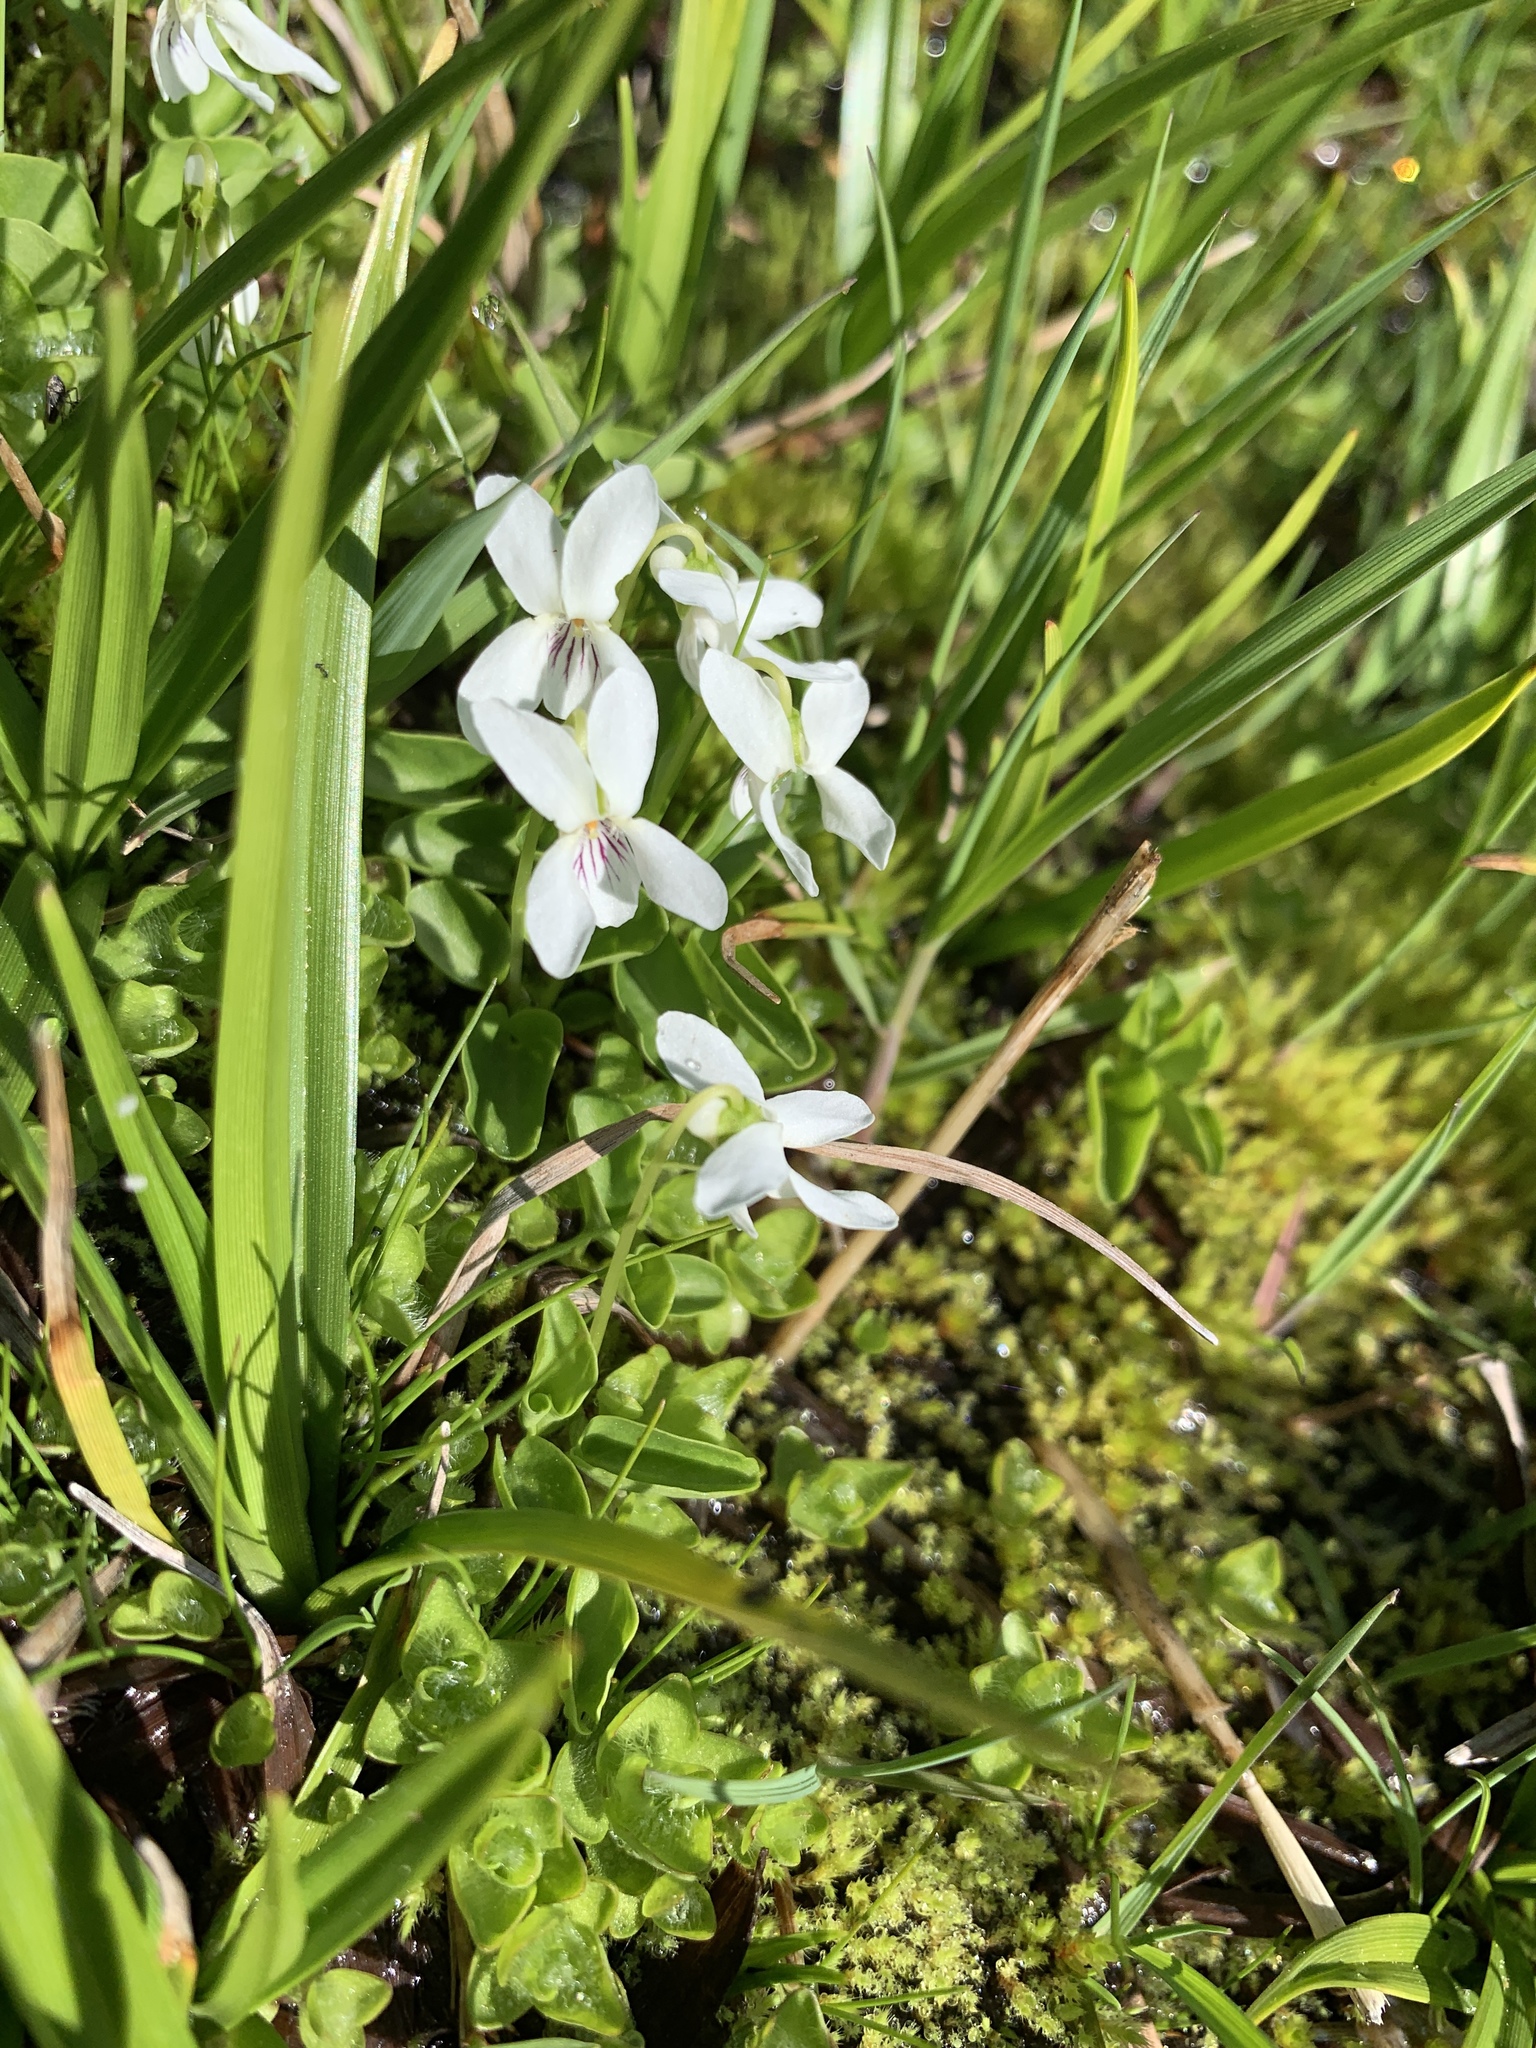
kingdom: Plantae
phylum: Tracheophyta
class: Magnoliopsida
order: Malpighiales
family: Violaceae
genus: Viola
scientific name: Viola macloskeyi
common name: Macloskey's violet
